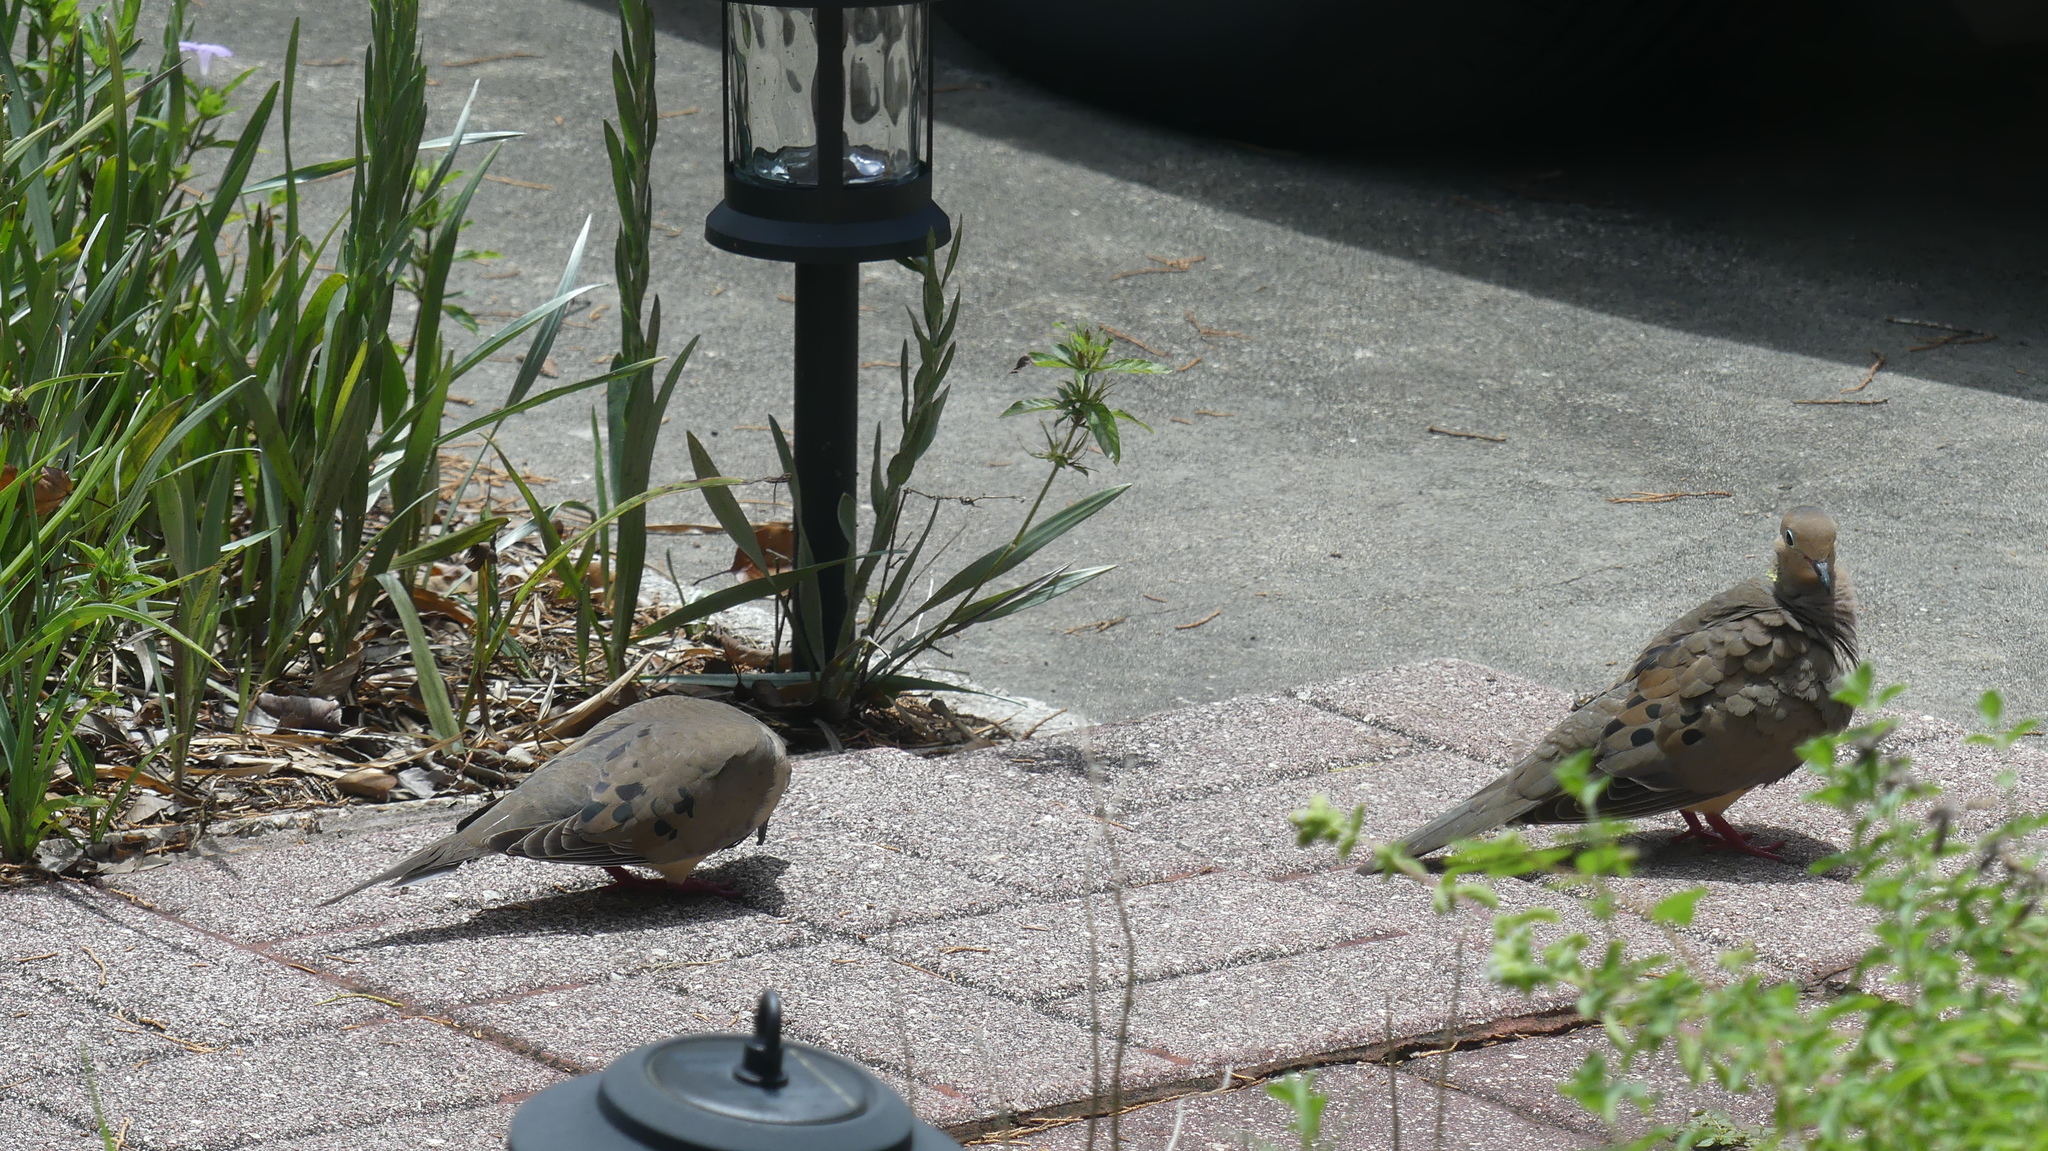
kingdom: Animalia
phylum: Chordata
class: Aves
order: Columbiformes
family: Columbidae
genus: Zenaida
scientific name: Zenaida macroura
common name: Mourning dove
